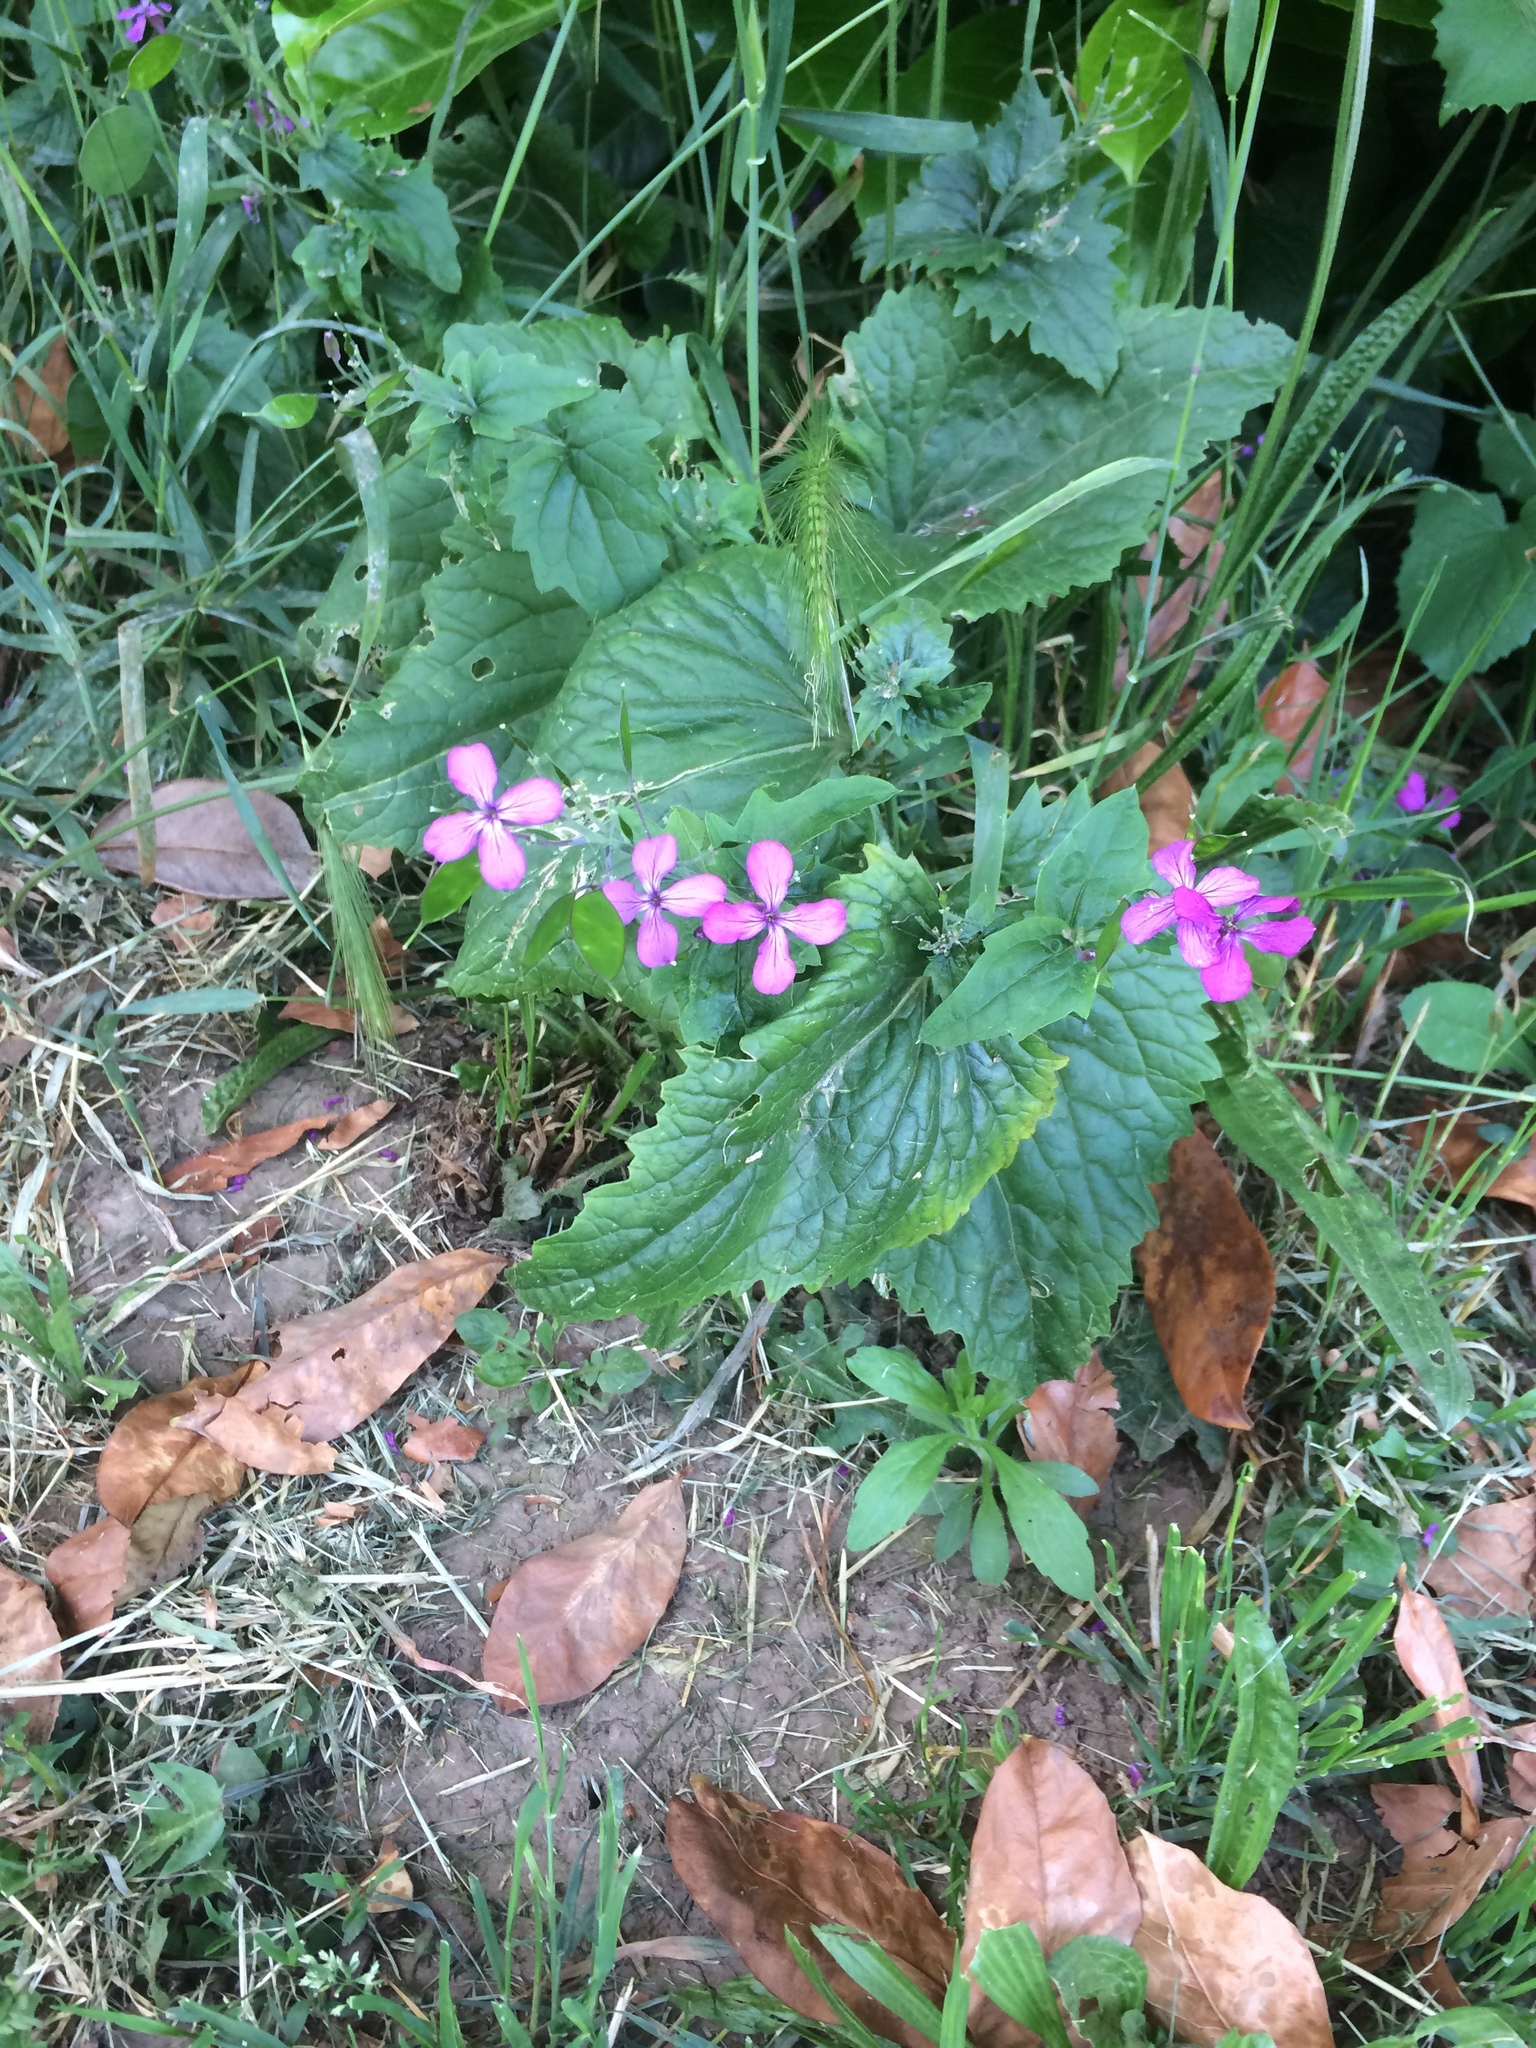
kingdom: Plantae
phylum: Tracheophyta
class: Magnoliopsida
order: Brassicales
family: Brassicaceae
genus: Lunaria
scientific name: Lunaria annua
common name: Honesty
